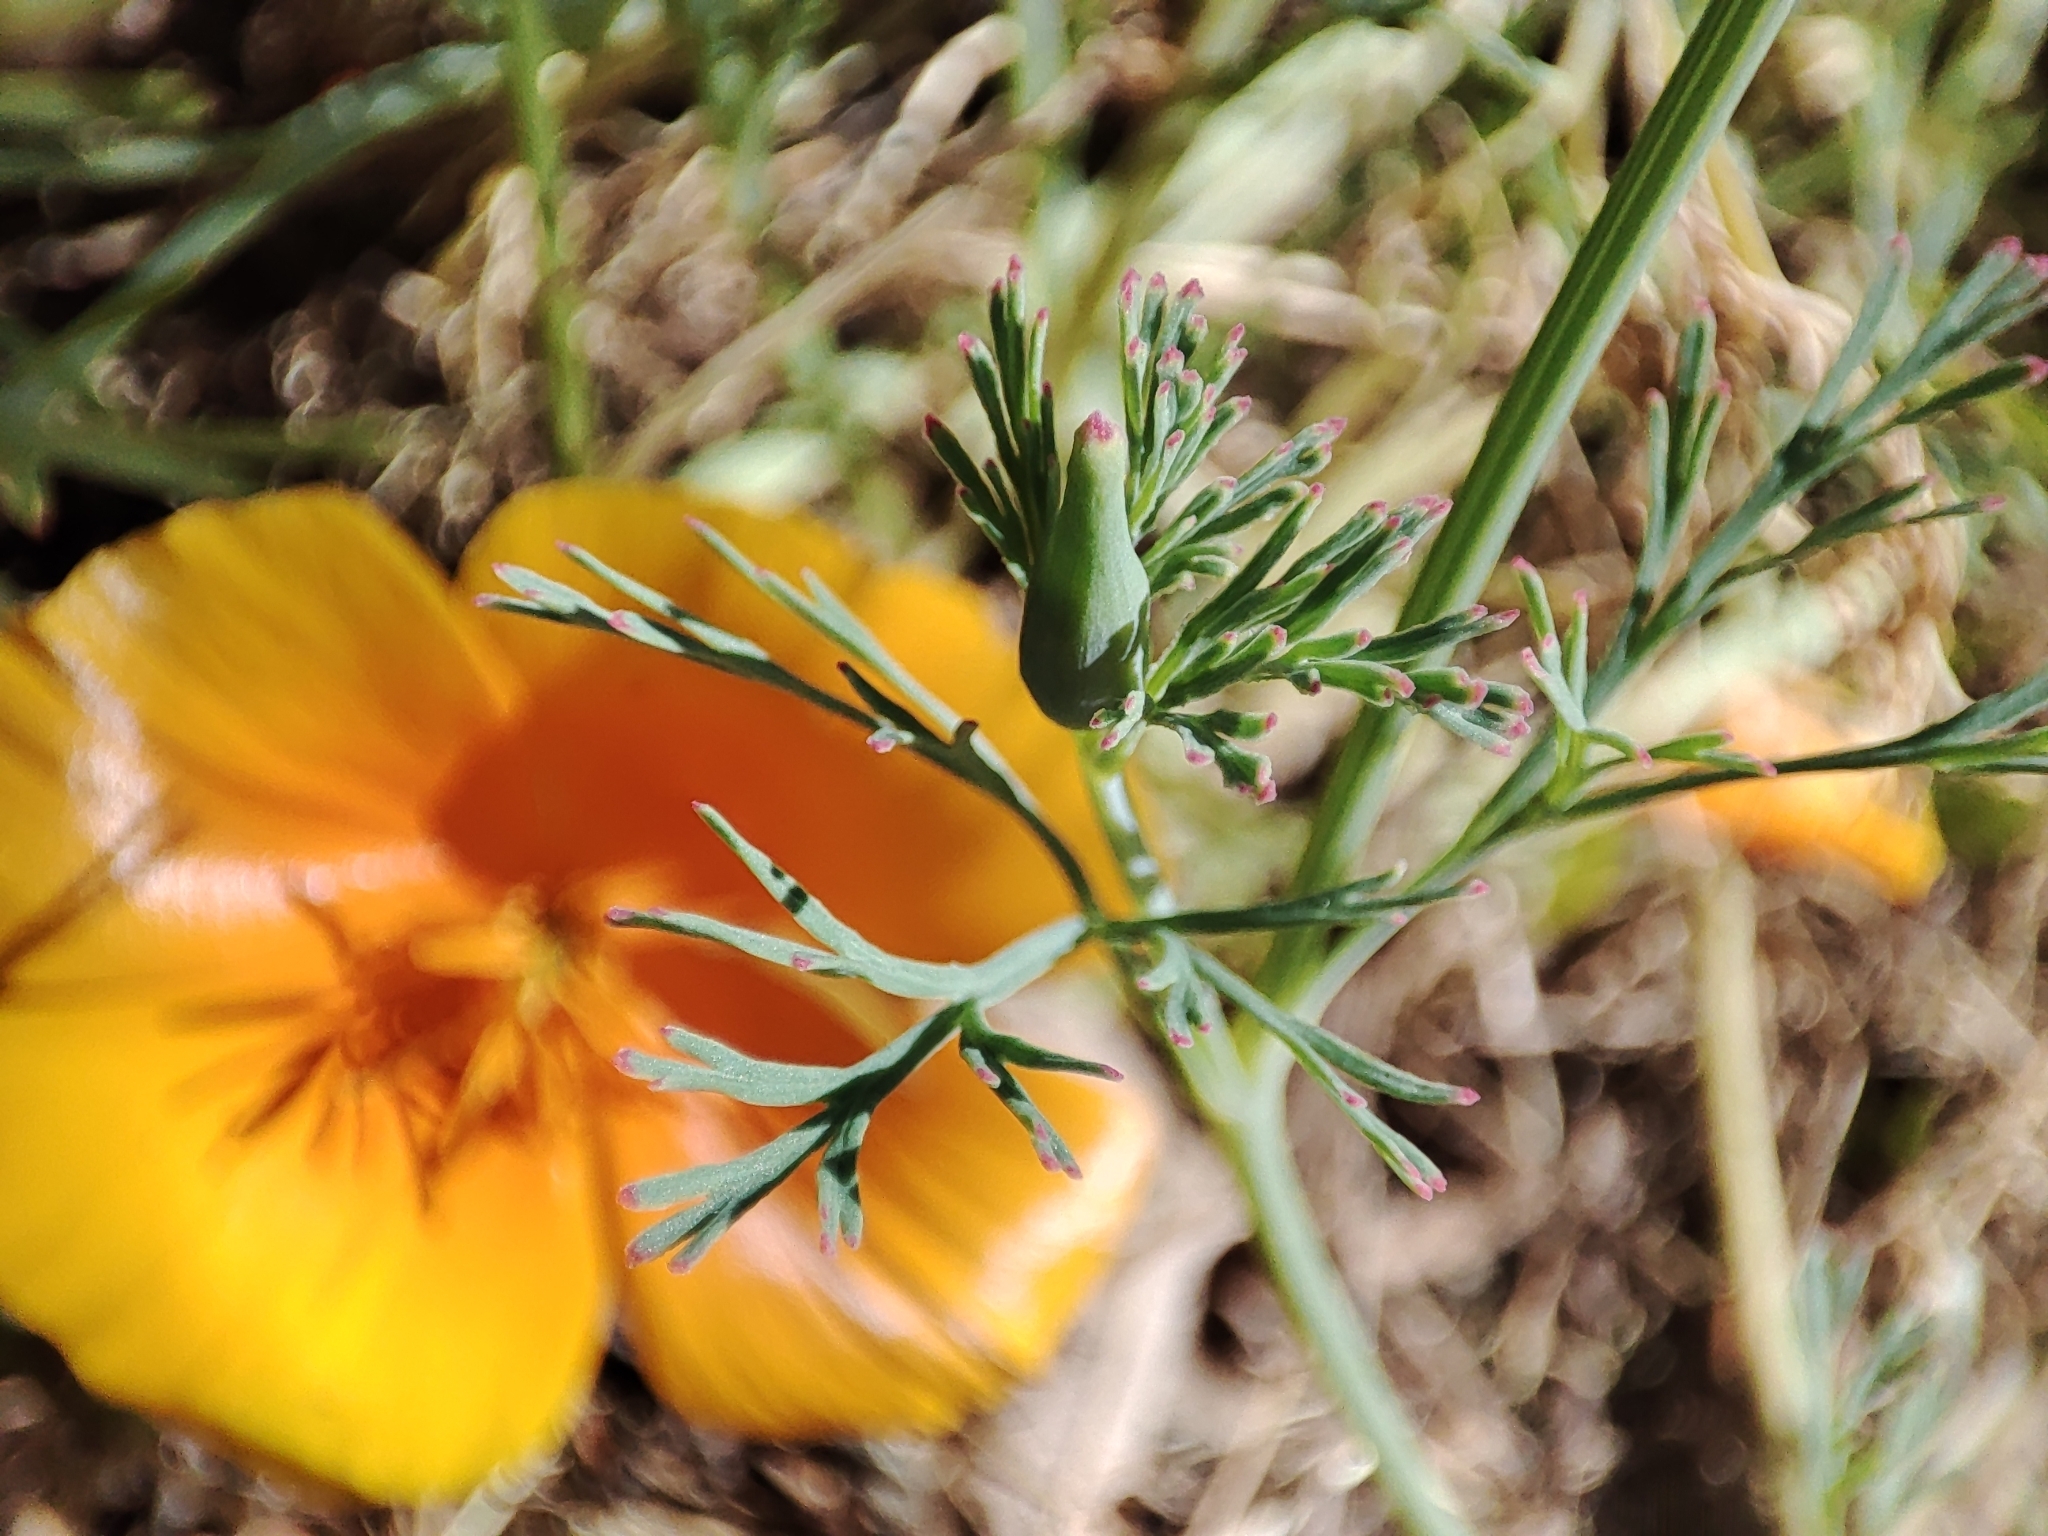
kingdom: Plantae
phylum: Tracheophyta
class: Magnoliopsida
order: Ranunculales
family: Papaveraceae
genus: Eschscholzia
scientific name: Eschscholzia californica
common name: California poppy
